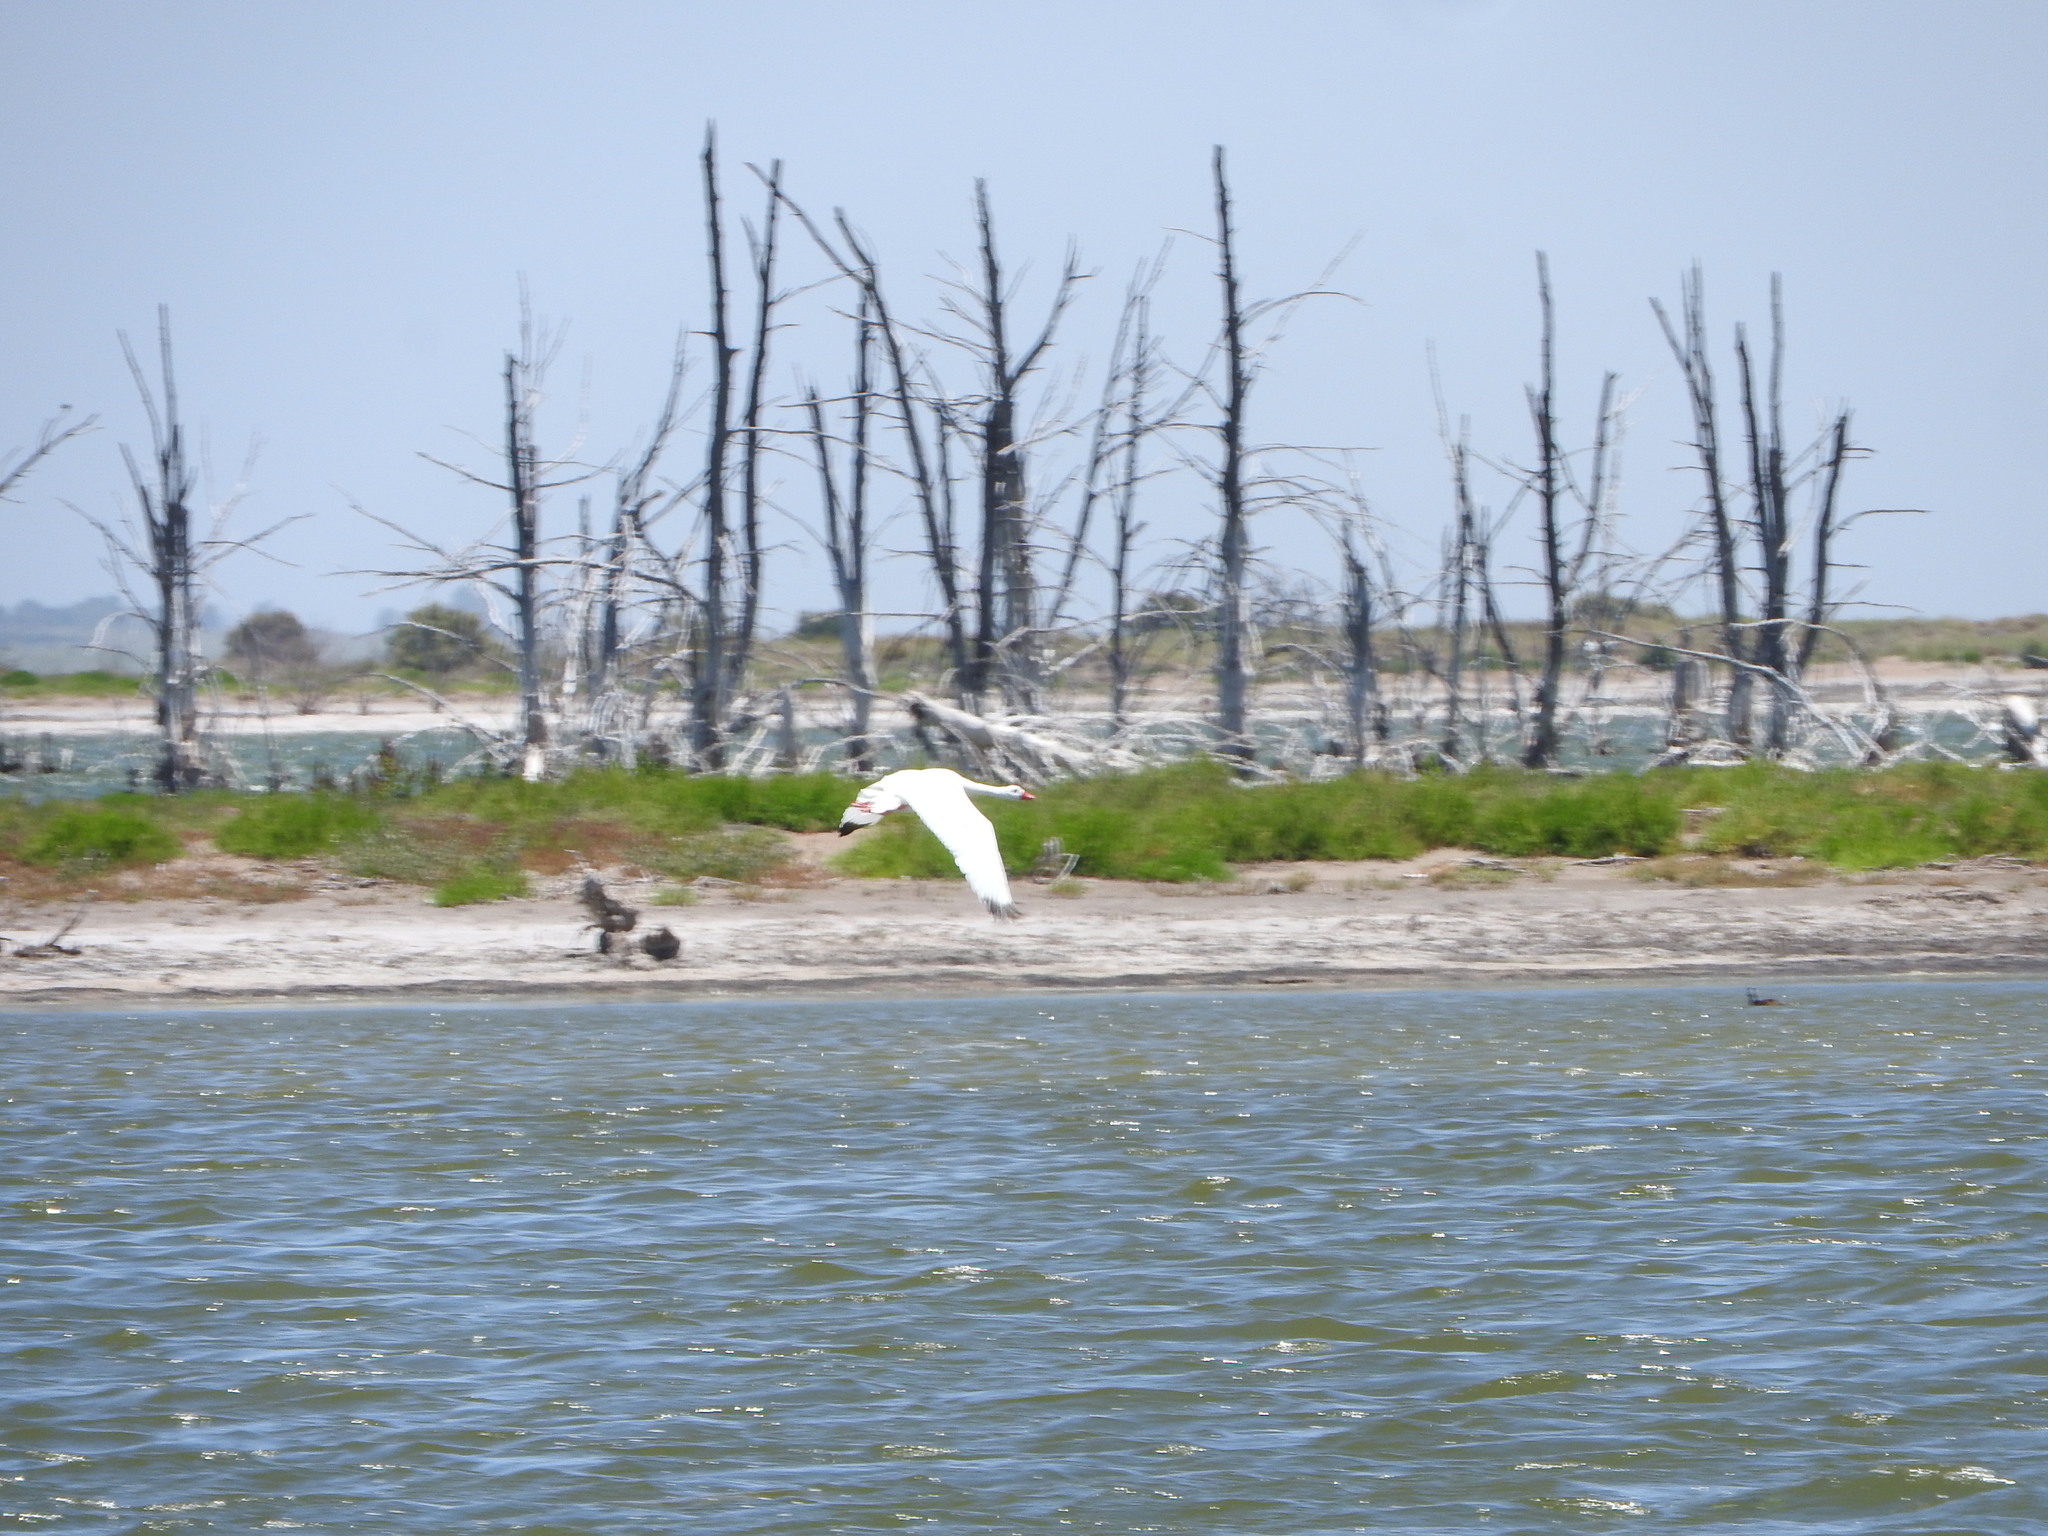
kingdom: Animalia
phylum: Chordata
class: Aves
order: Anseriformes
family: Anatidae
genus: Coscoroba
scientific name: Coscoroba coscoroba
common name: Coscoroba swan
